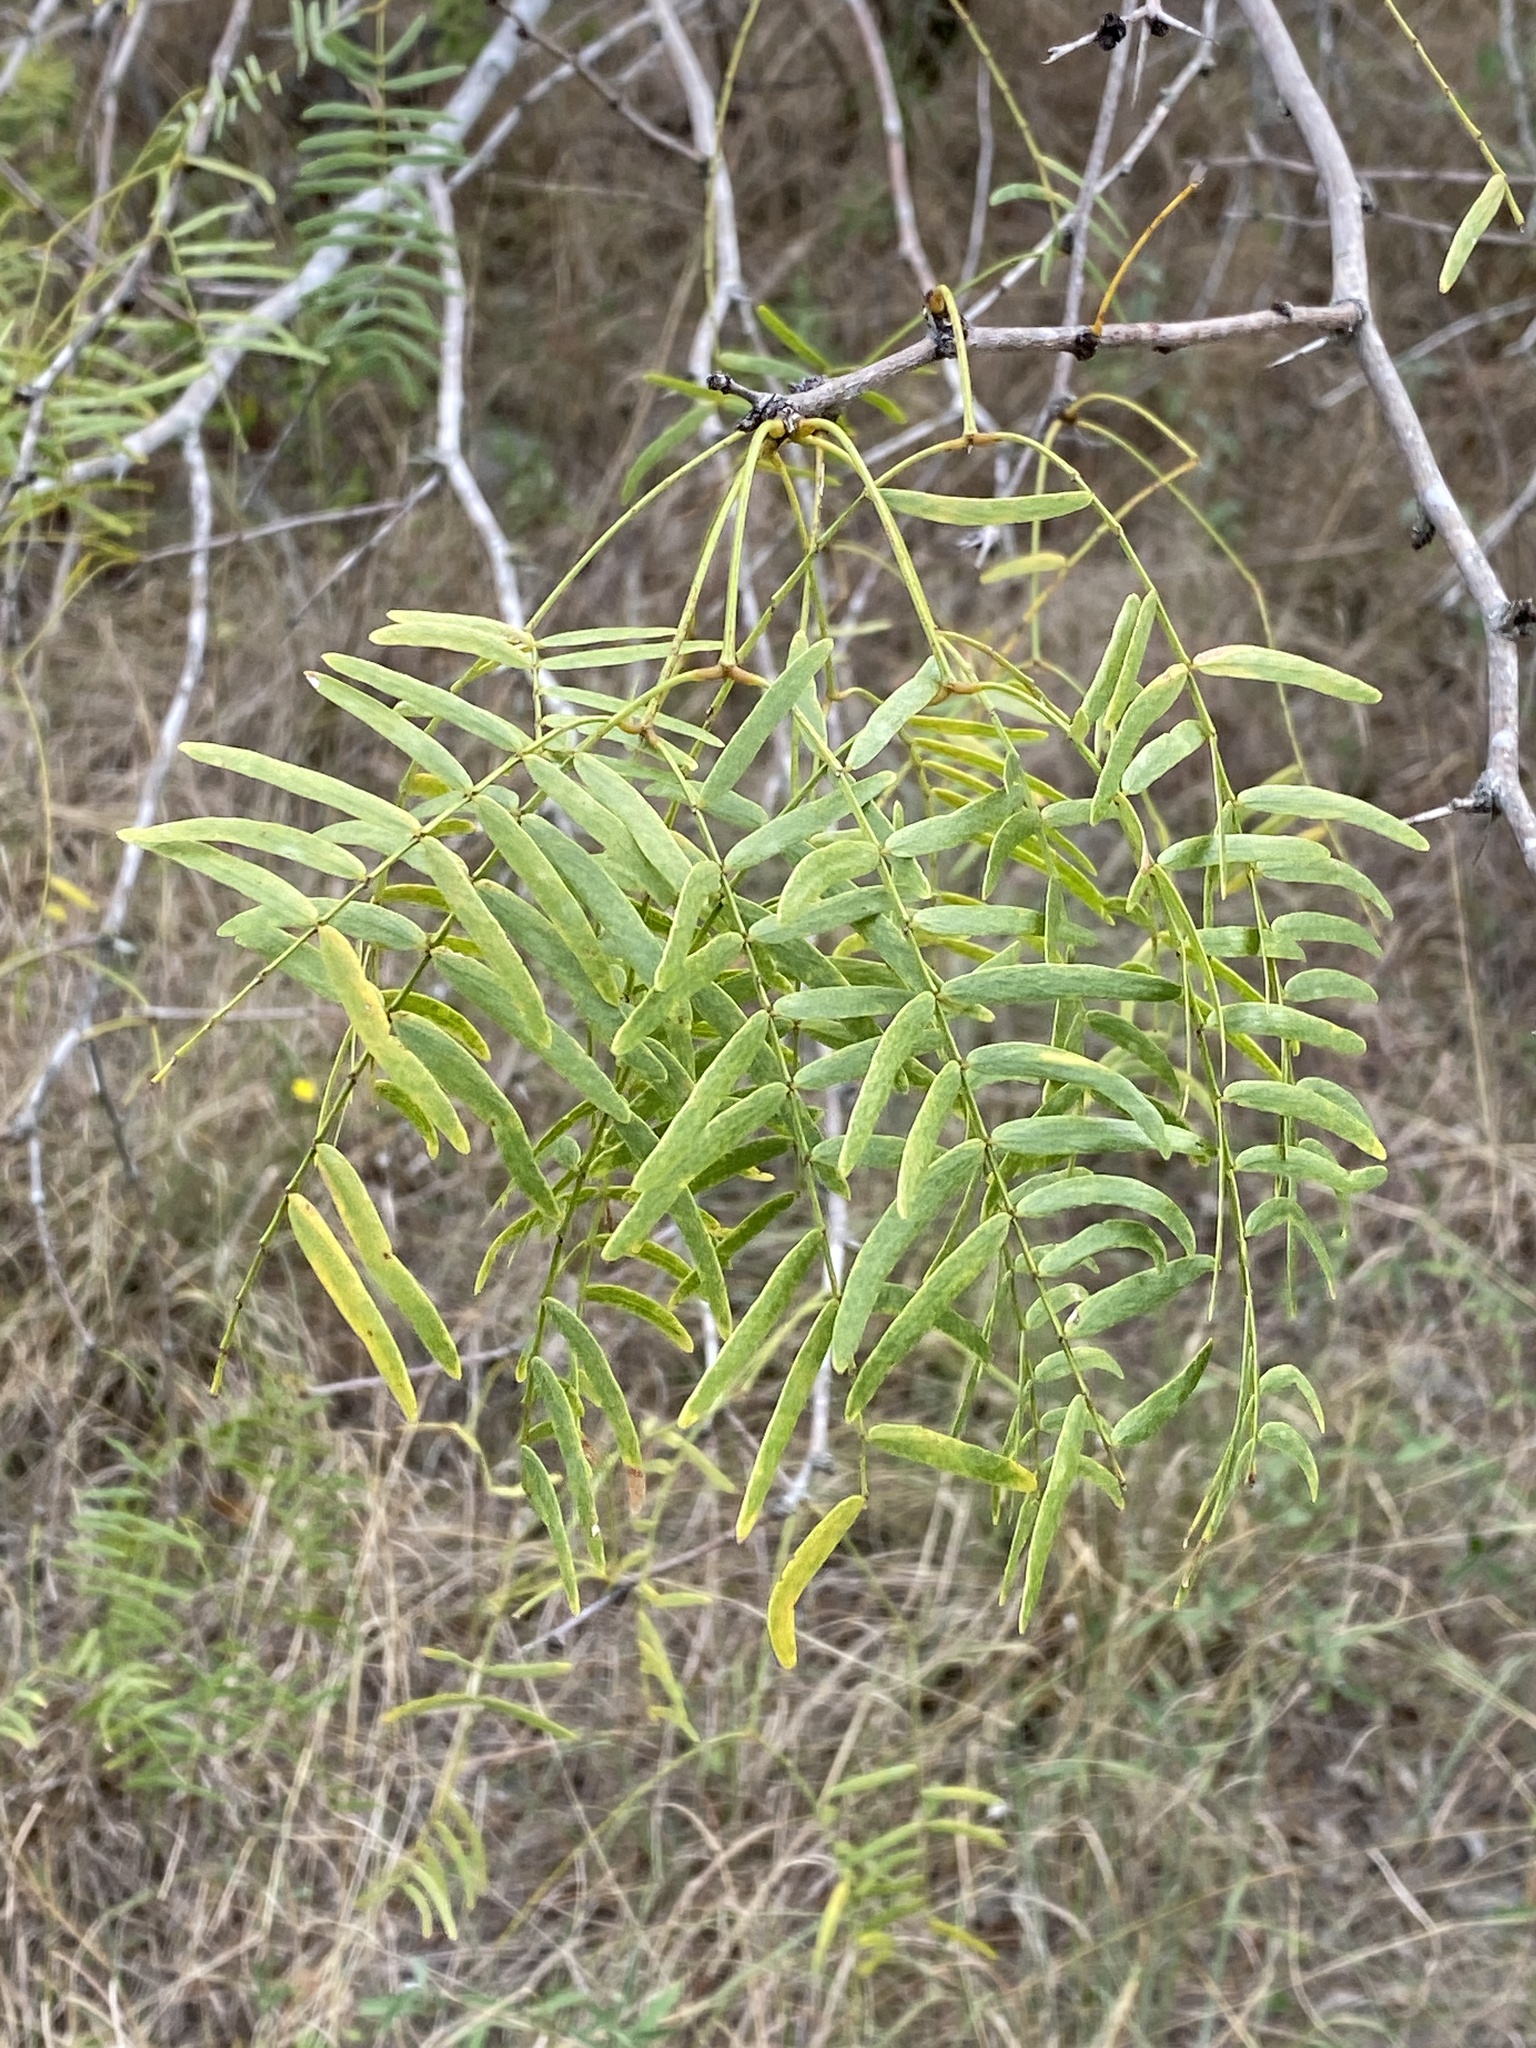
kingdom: Plantae
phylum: Tracheophyta
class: Magnoliopsida
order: Fabales
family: Fabaceae
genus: Prosopis
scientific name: Prosopis glandulosa
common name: Honey mesquite
